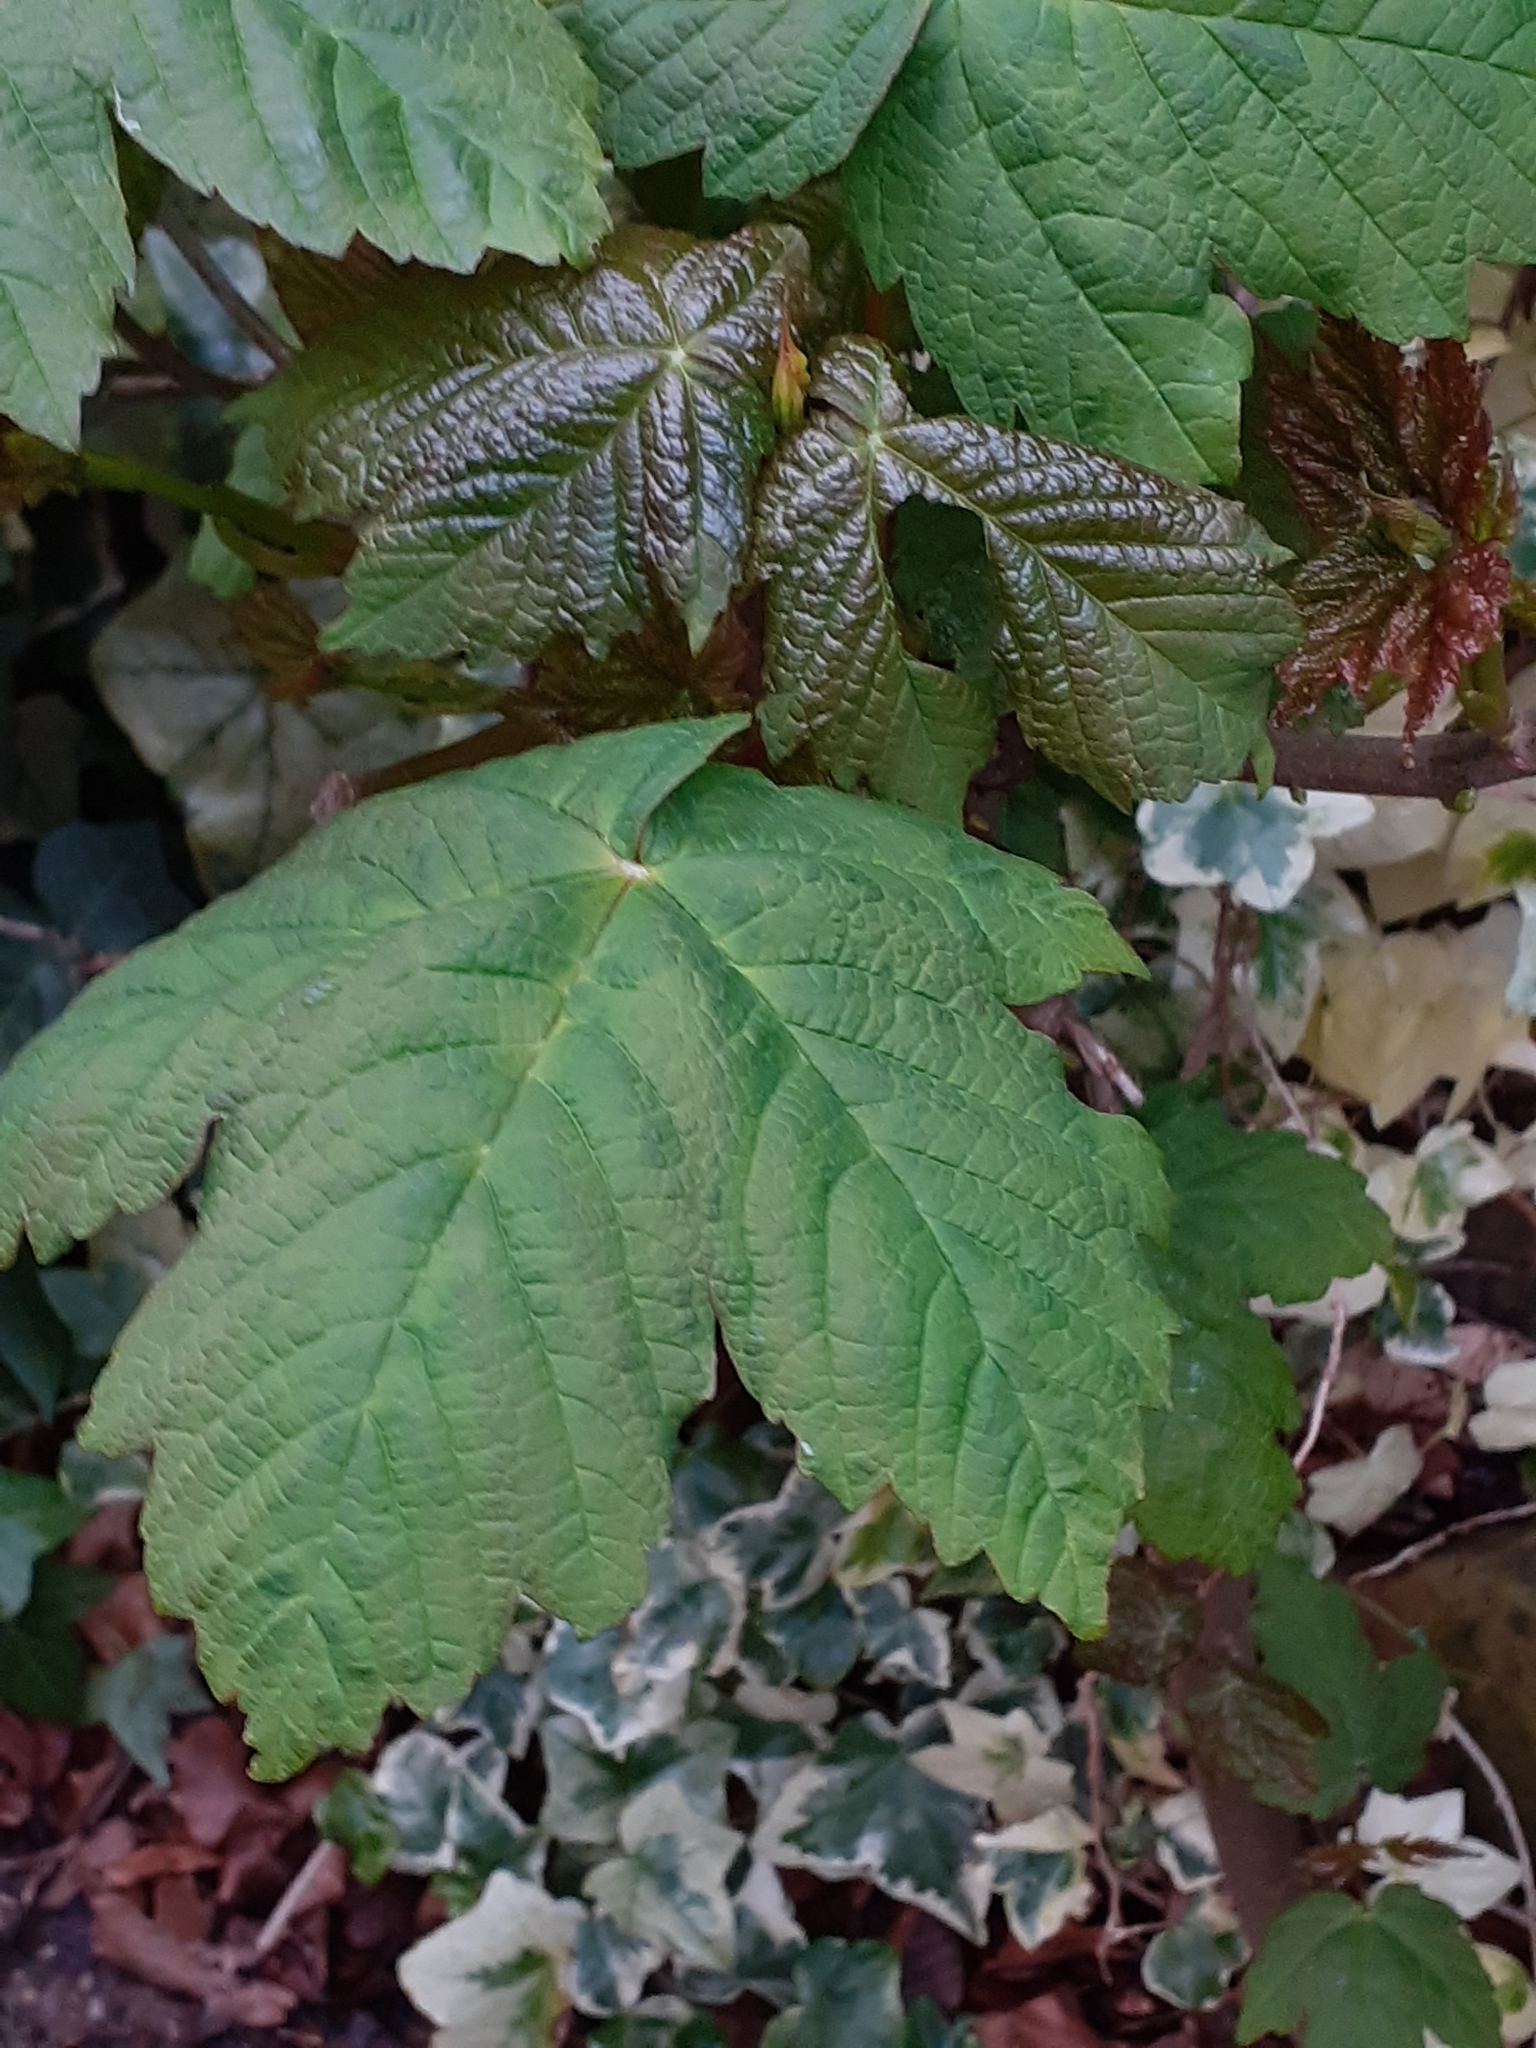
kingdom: Plantae
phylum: Tracheophyta
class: Magnoliopsida
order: Sapindales
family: Sapindaceae
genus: Acer
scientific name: Acer pseudoplatanus
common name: Sycamore
